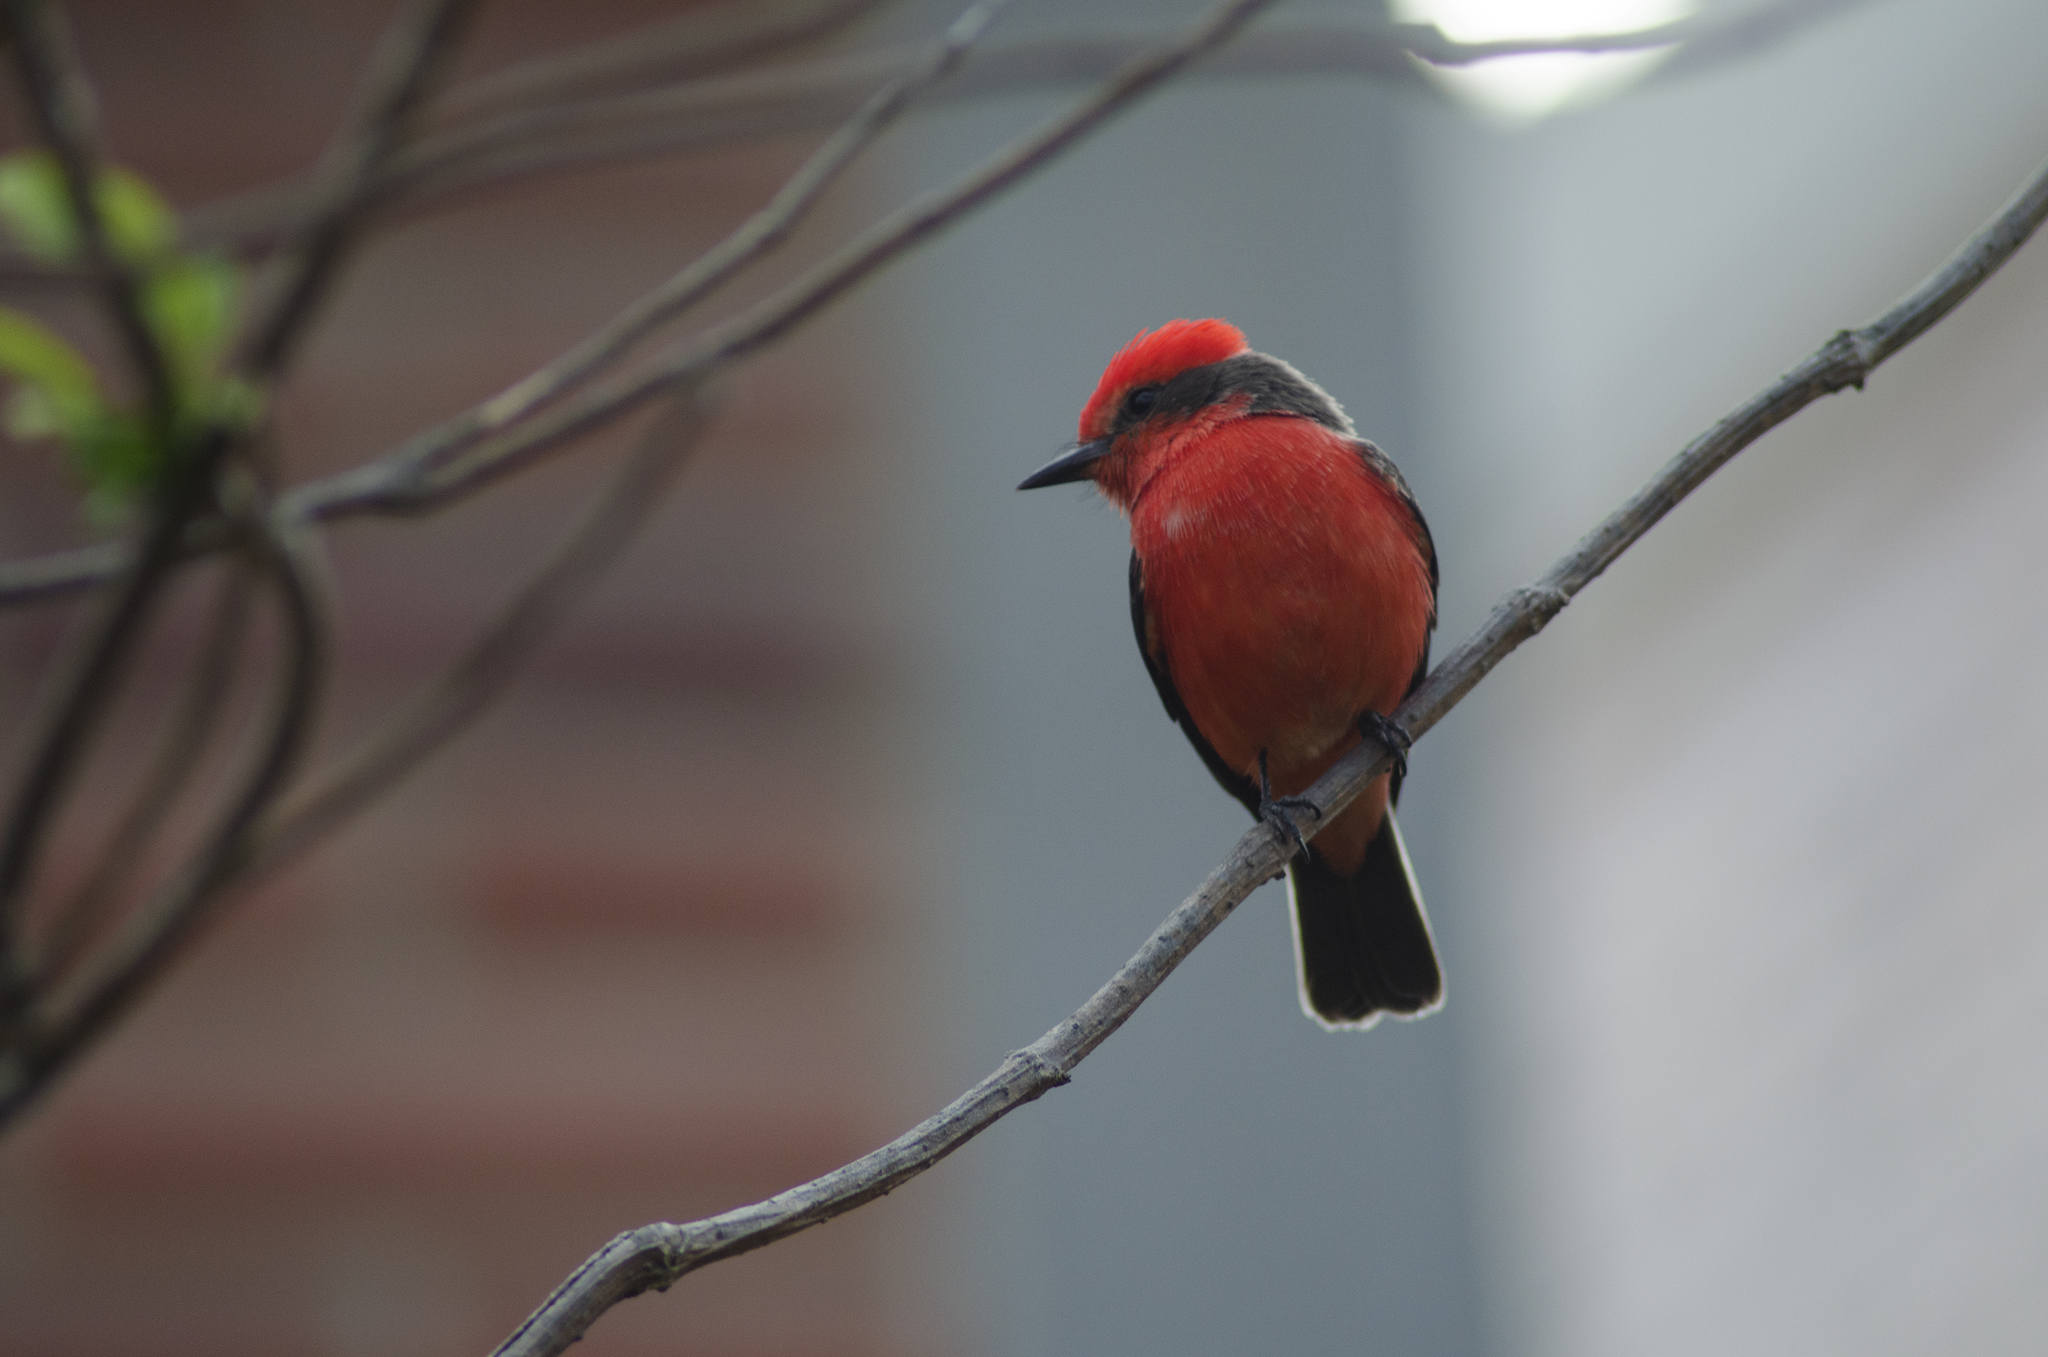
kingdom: Animalia
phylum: Chordata
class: Aves
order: Passeriformes
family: Tyrannidae
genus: Pyrocephalus
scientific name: Pyrocephalus rubinus
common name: Vermilion flycatcher
